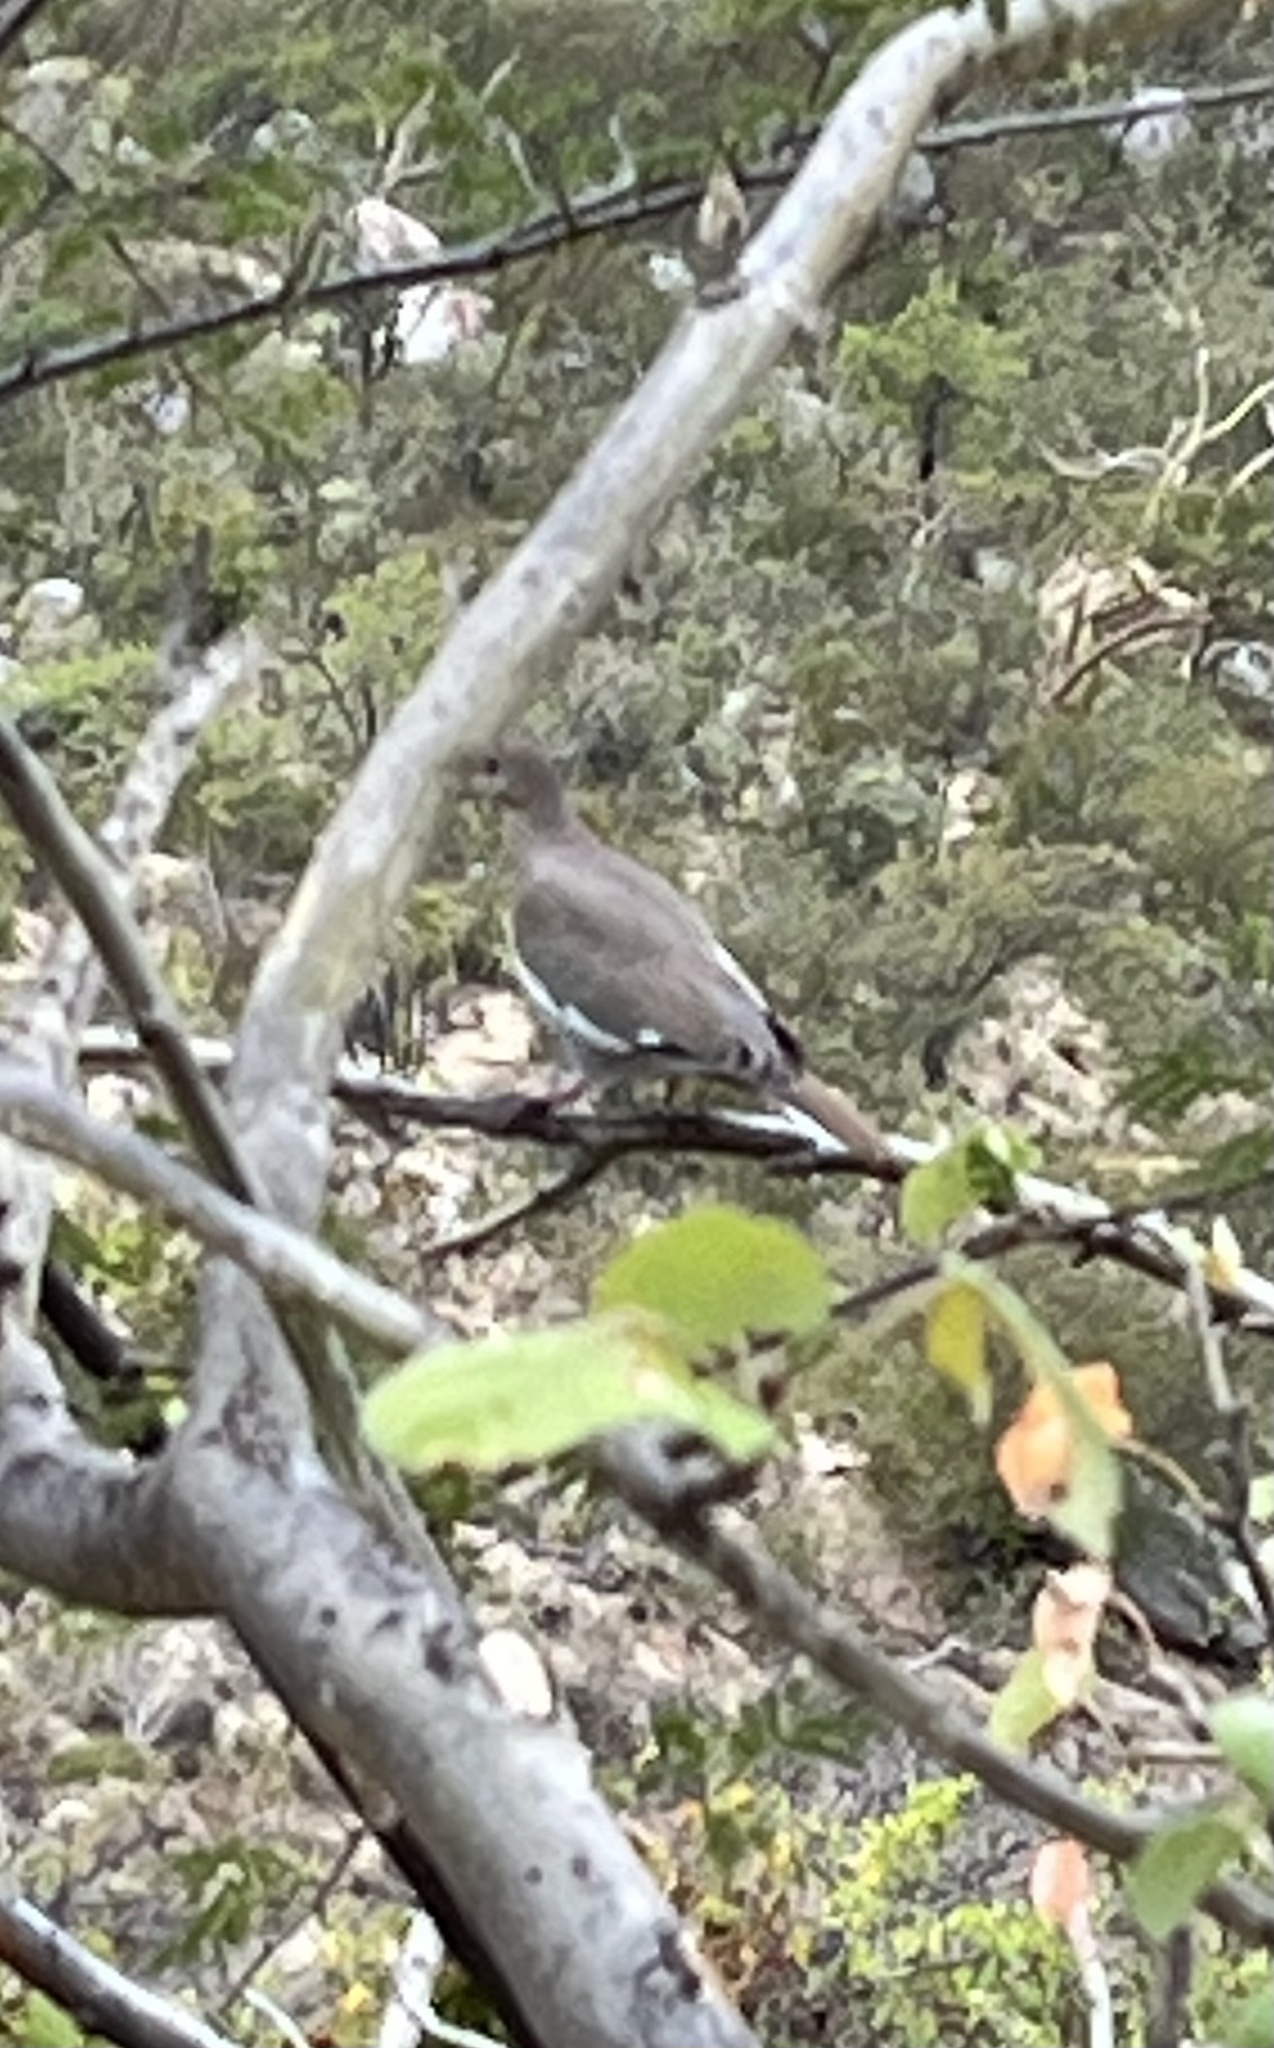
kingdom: Animalia
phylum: Chordata
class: Aves
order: Columbiformes
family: Columbidae
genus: Zenaida
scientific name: Zenaida asiatica
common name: White-winged dove
